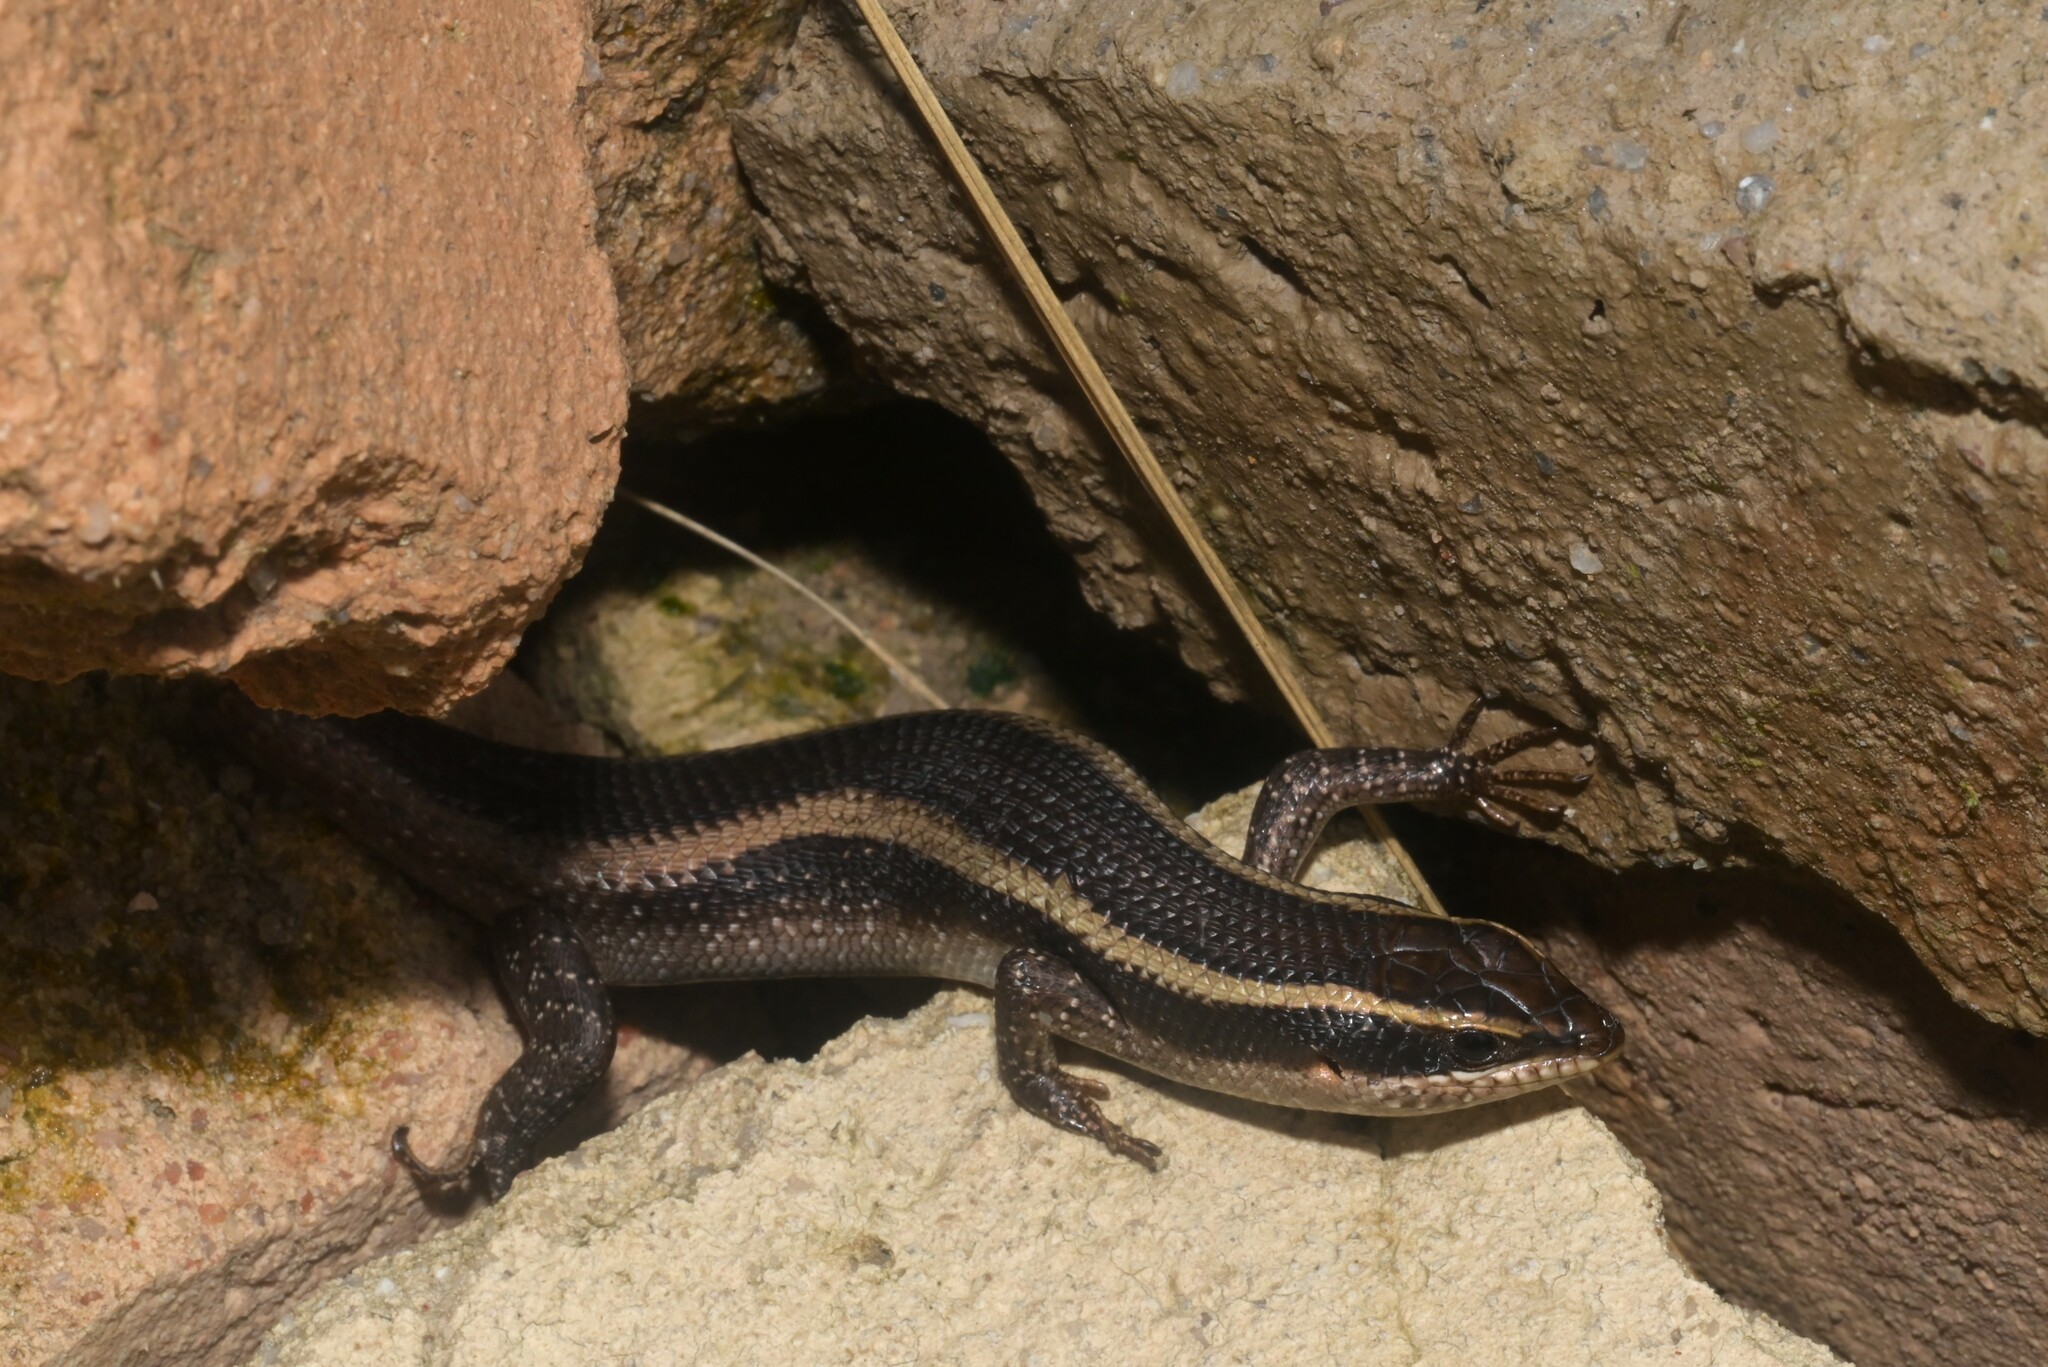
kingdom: Animalia
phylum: Chordata
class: Squamata
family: Scincidae
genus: Trachylepis
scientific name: Trachylepis striata
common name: African striped mabuya
